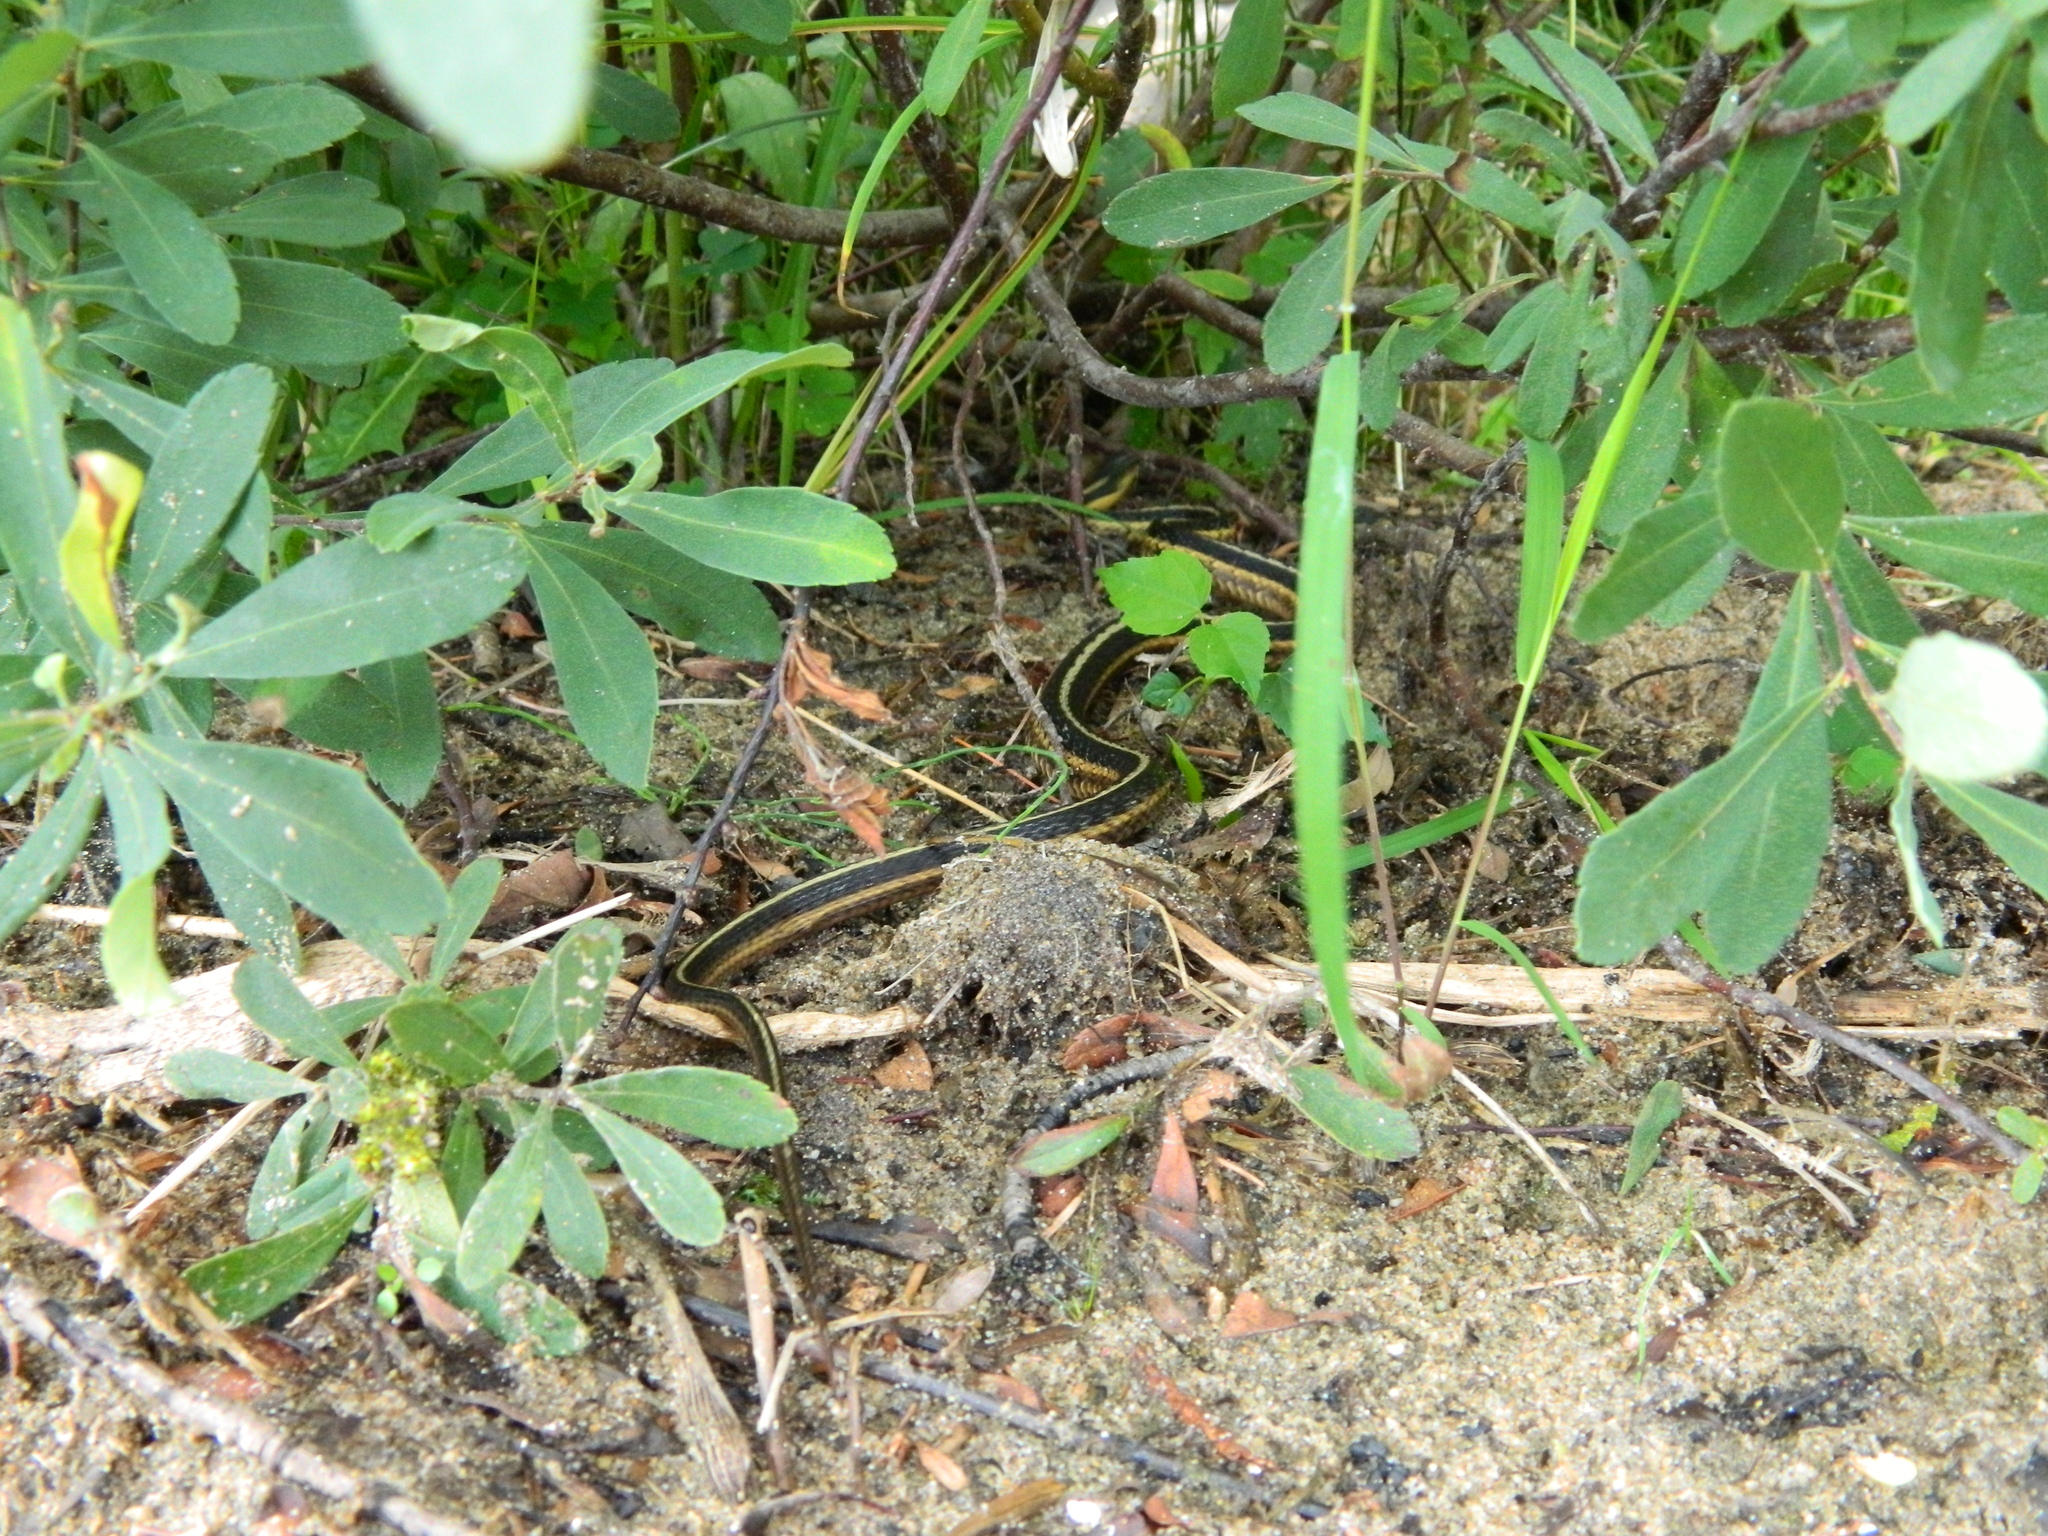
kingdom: Animalia
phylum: Chordata
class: Squamata
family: Colubridae
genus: Thamnophis
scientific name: Thamnophis sirtalis
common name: Common garter snake
